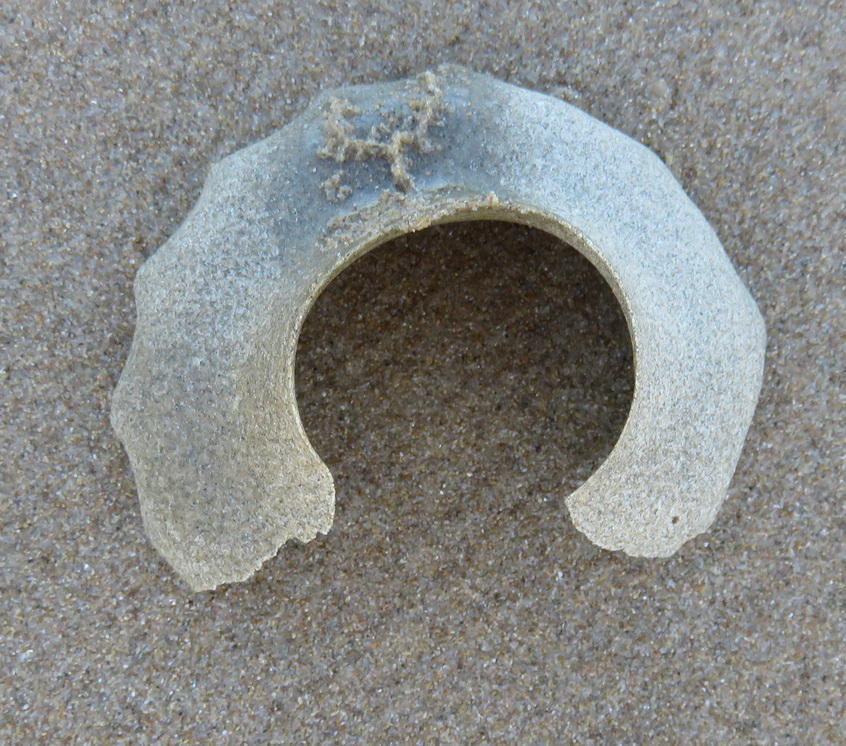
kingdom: Animalia
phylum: Mollusca
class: Gastropoda
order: Littorinimorpha
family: Naticidae
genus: Neverita
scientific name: Neverita didyma
